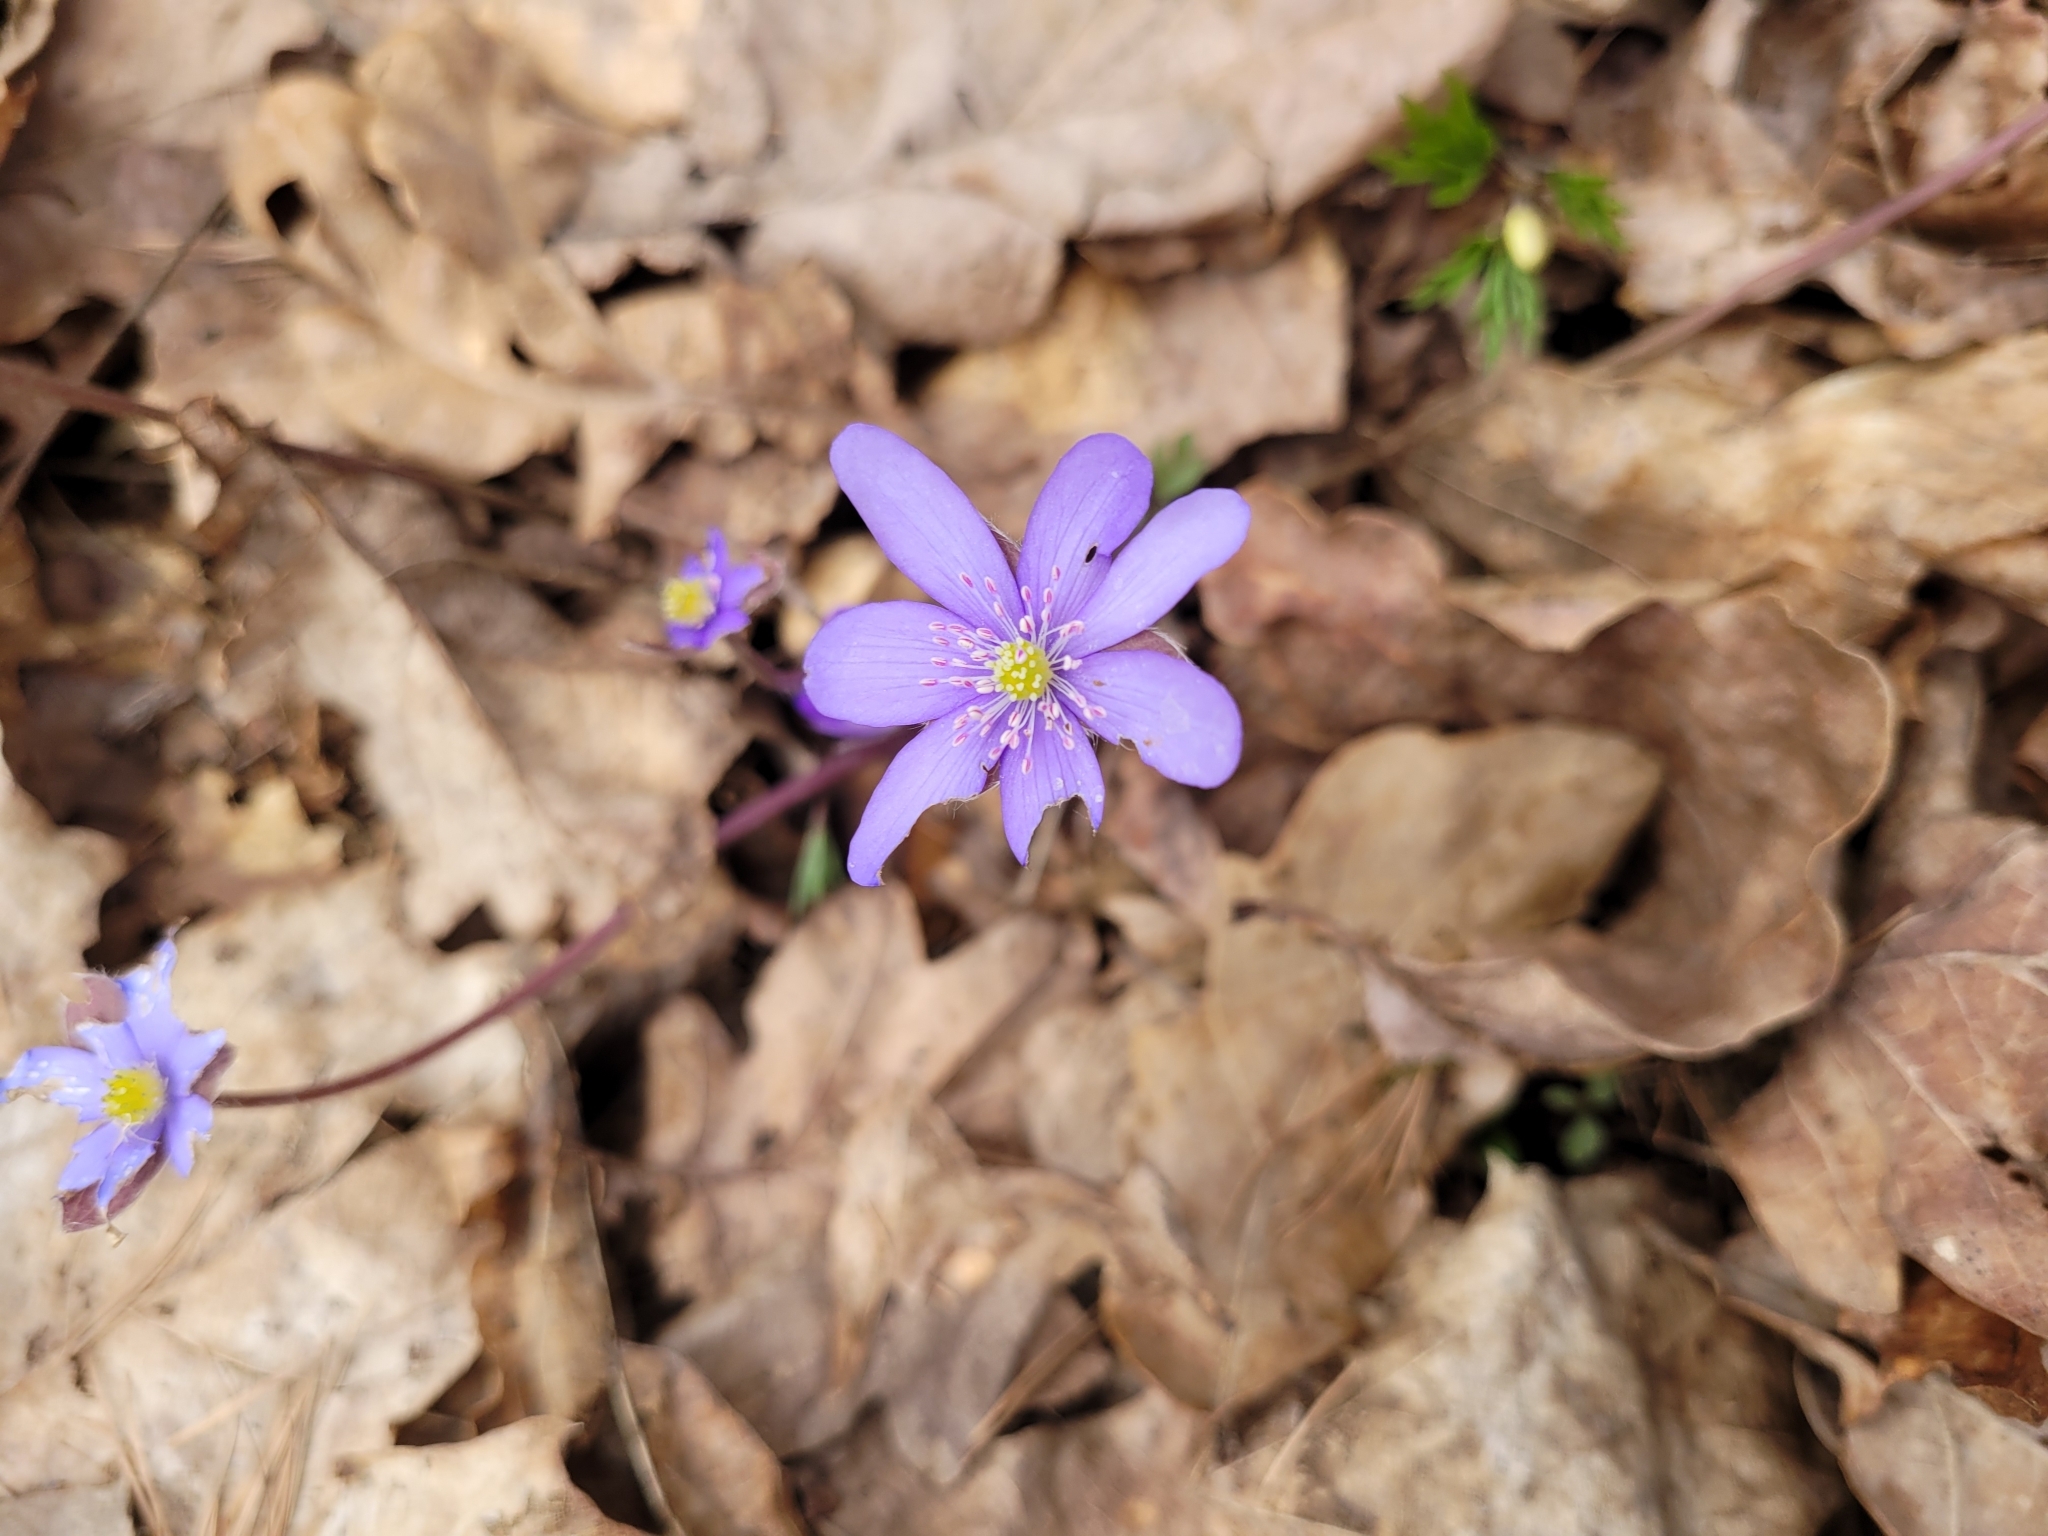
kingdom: Plantae
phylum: Tracheophyta
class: Magnoliopsida
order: Ranunculales
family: Ranunculaceae
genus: Hepatica
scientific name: Hepatica nobilis
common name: Liverleaf
